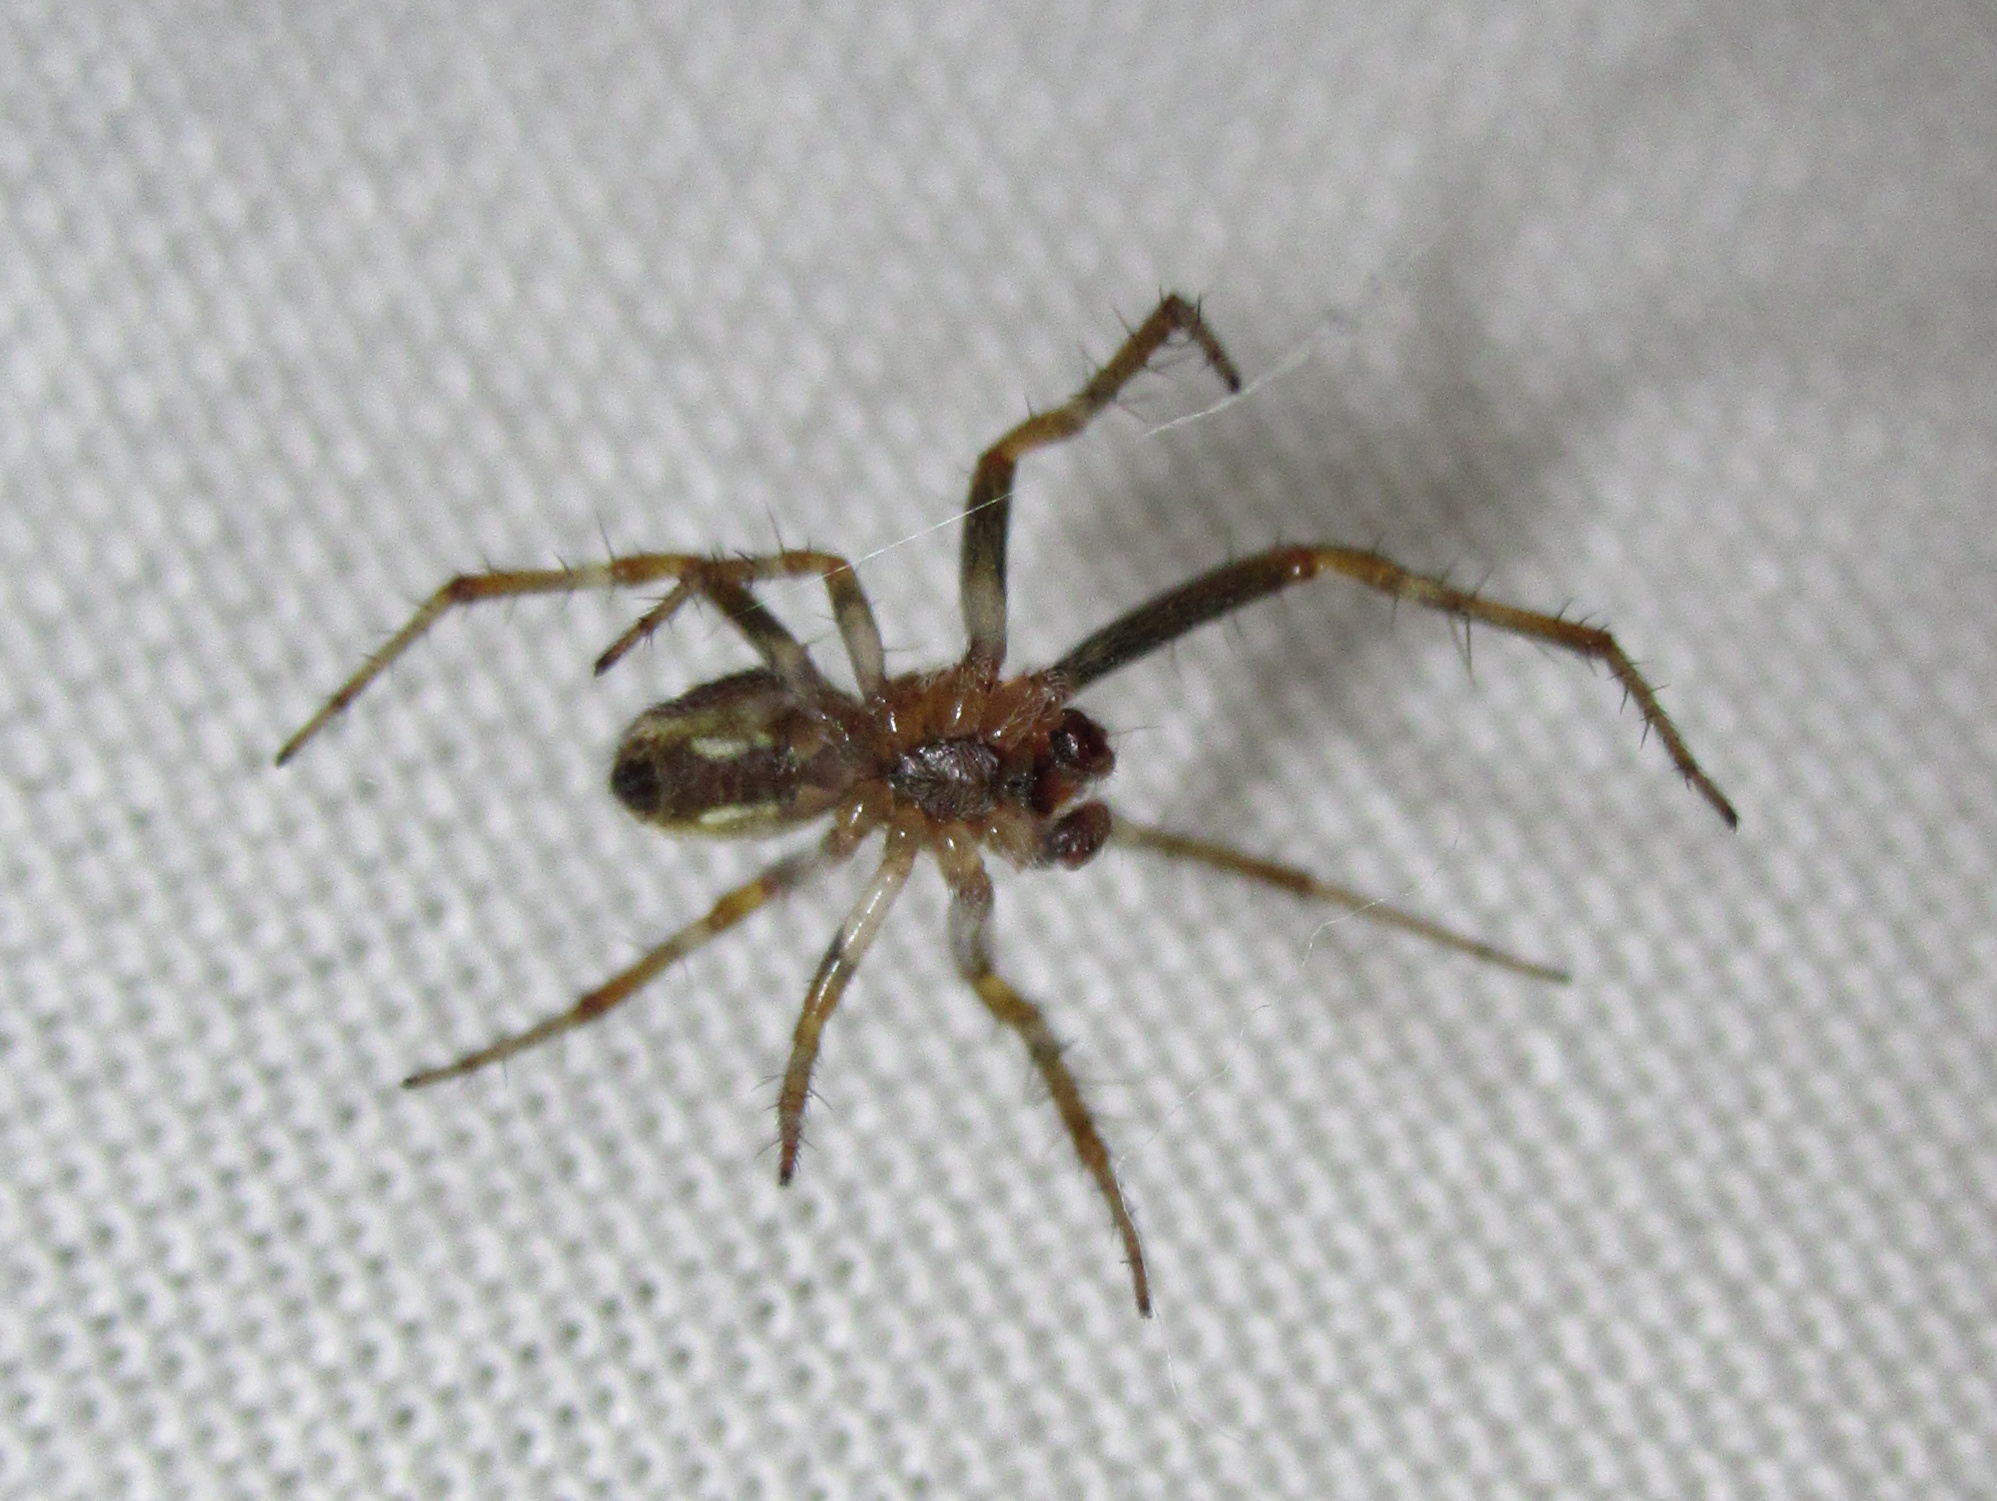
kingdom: Animalia
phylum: Arthropoda
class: Arachnida
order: Araneae
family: Araneidae
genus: Salsa
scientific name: Salsa fuliginata
